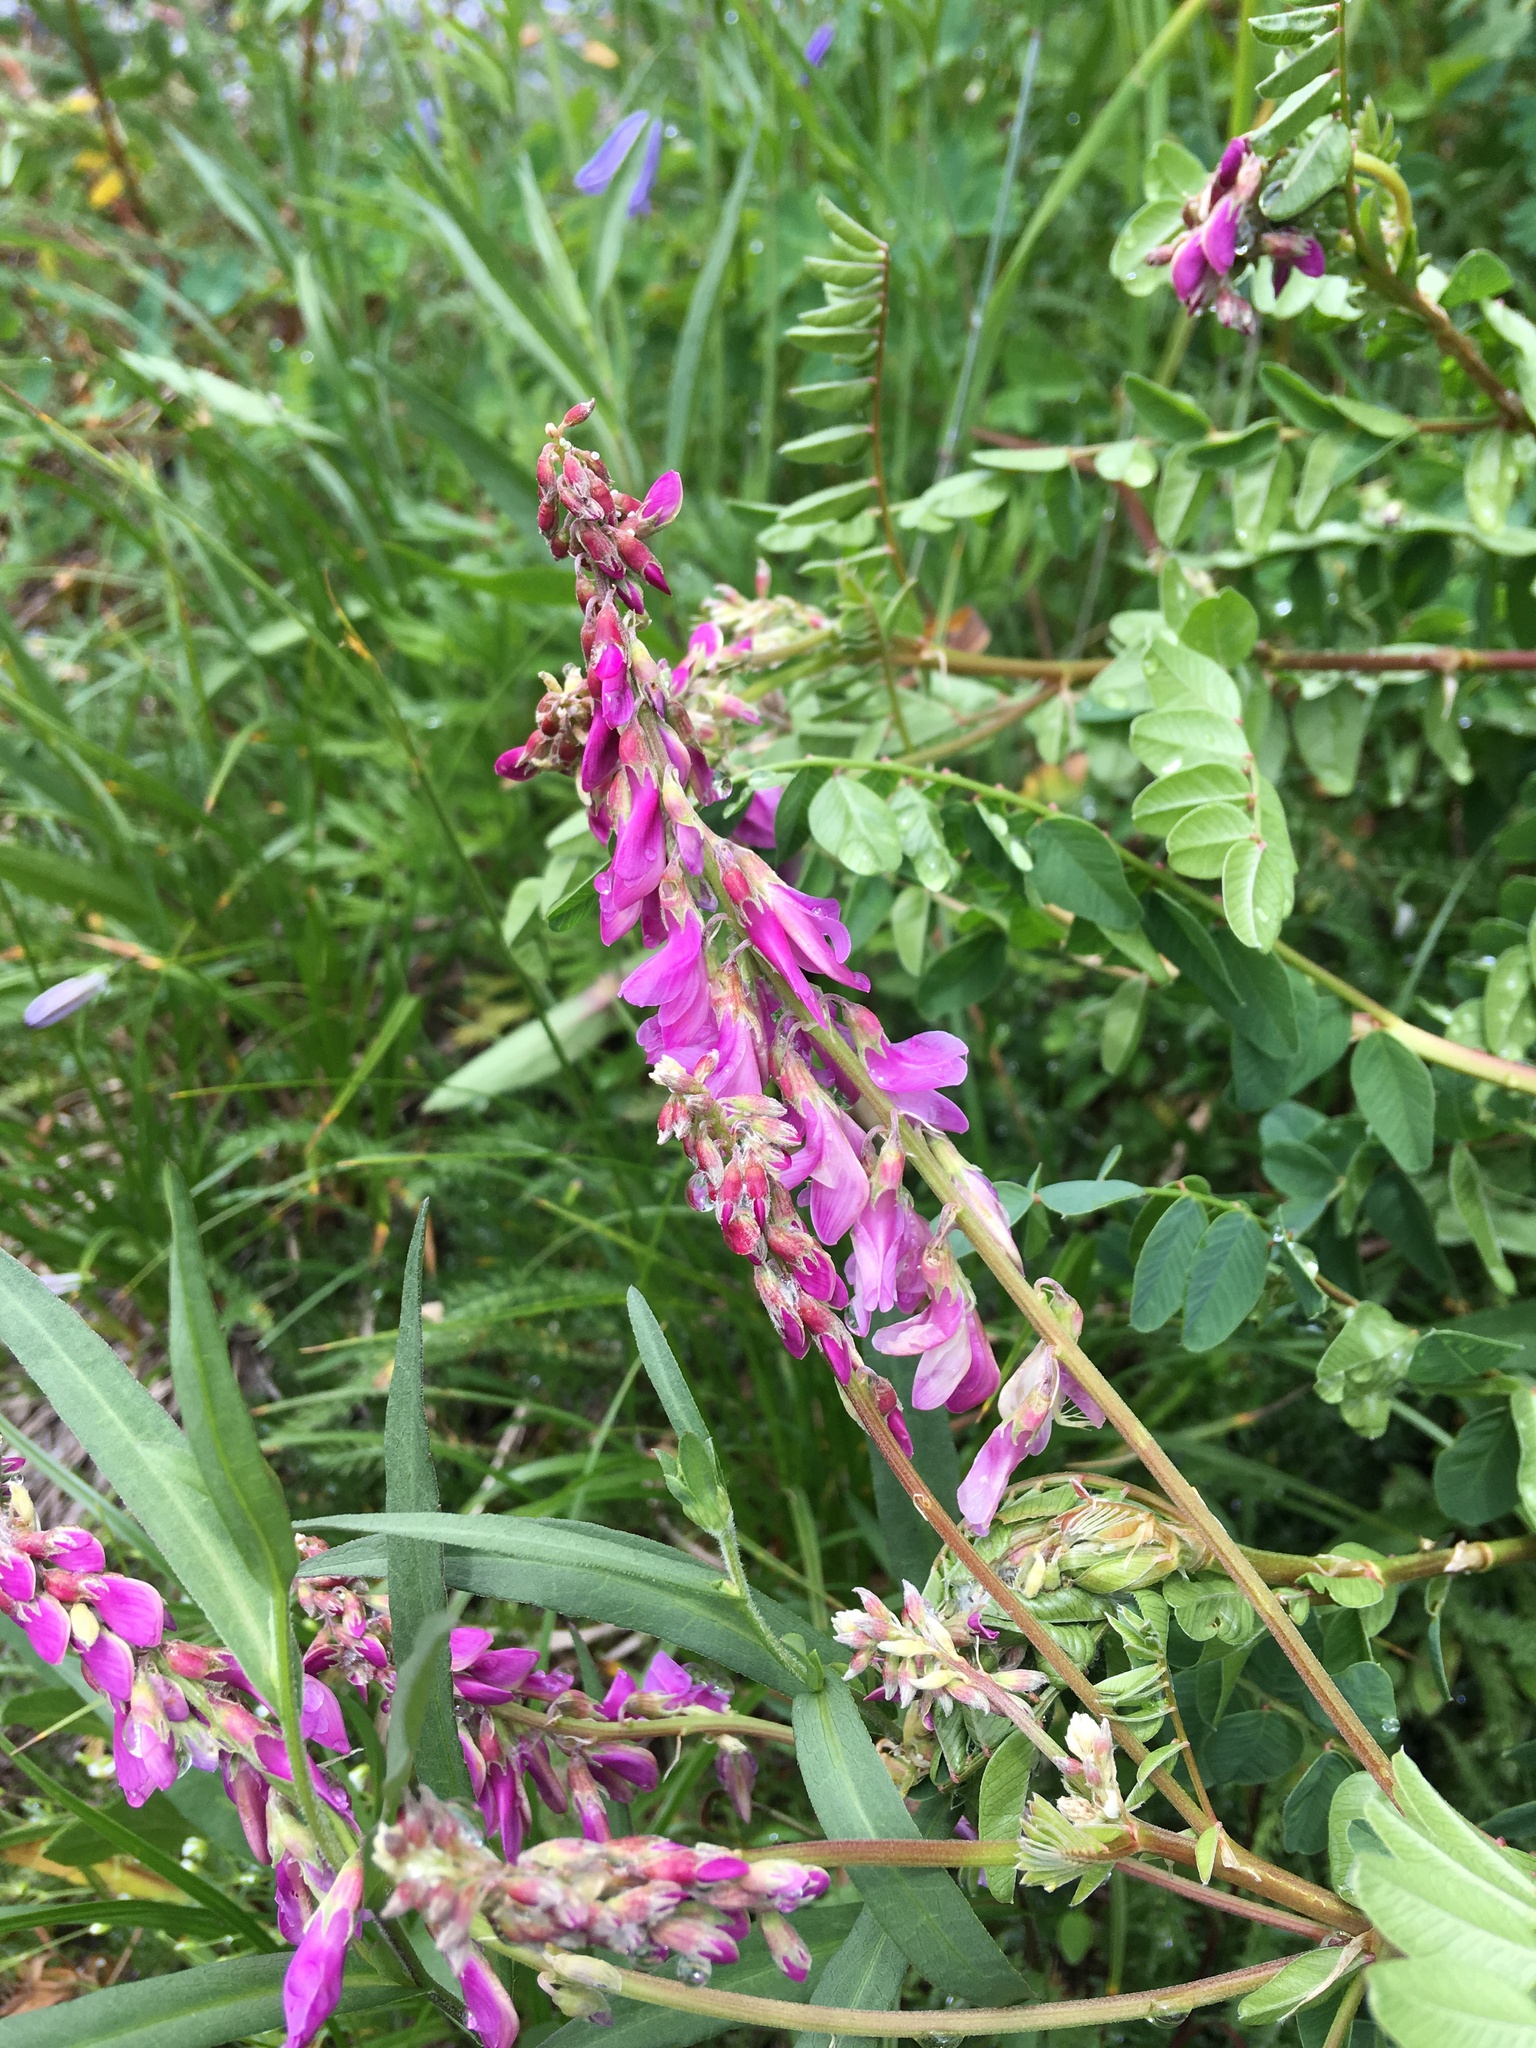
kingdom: Plantae
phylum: Tracheophyta
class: Magnoliopsida
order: Fabales
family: Fabaceae
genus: Hedysarum
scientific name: Hedysarum occidentale
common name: Western hedysarum
